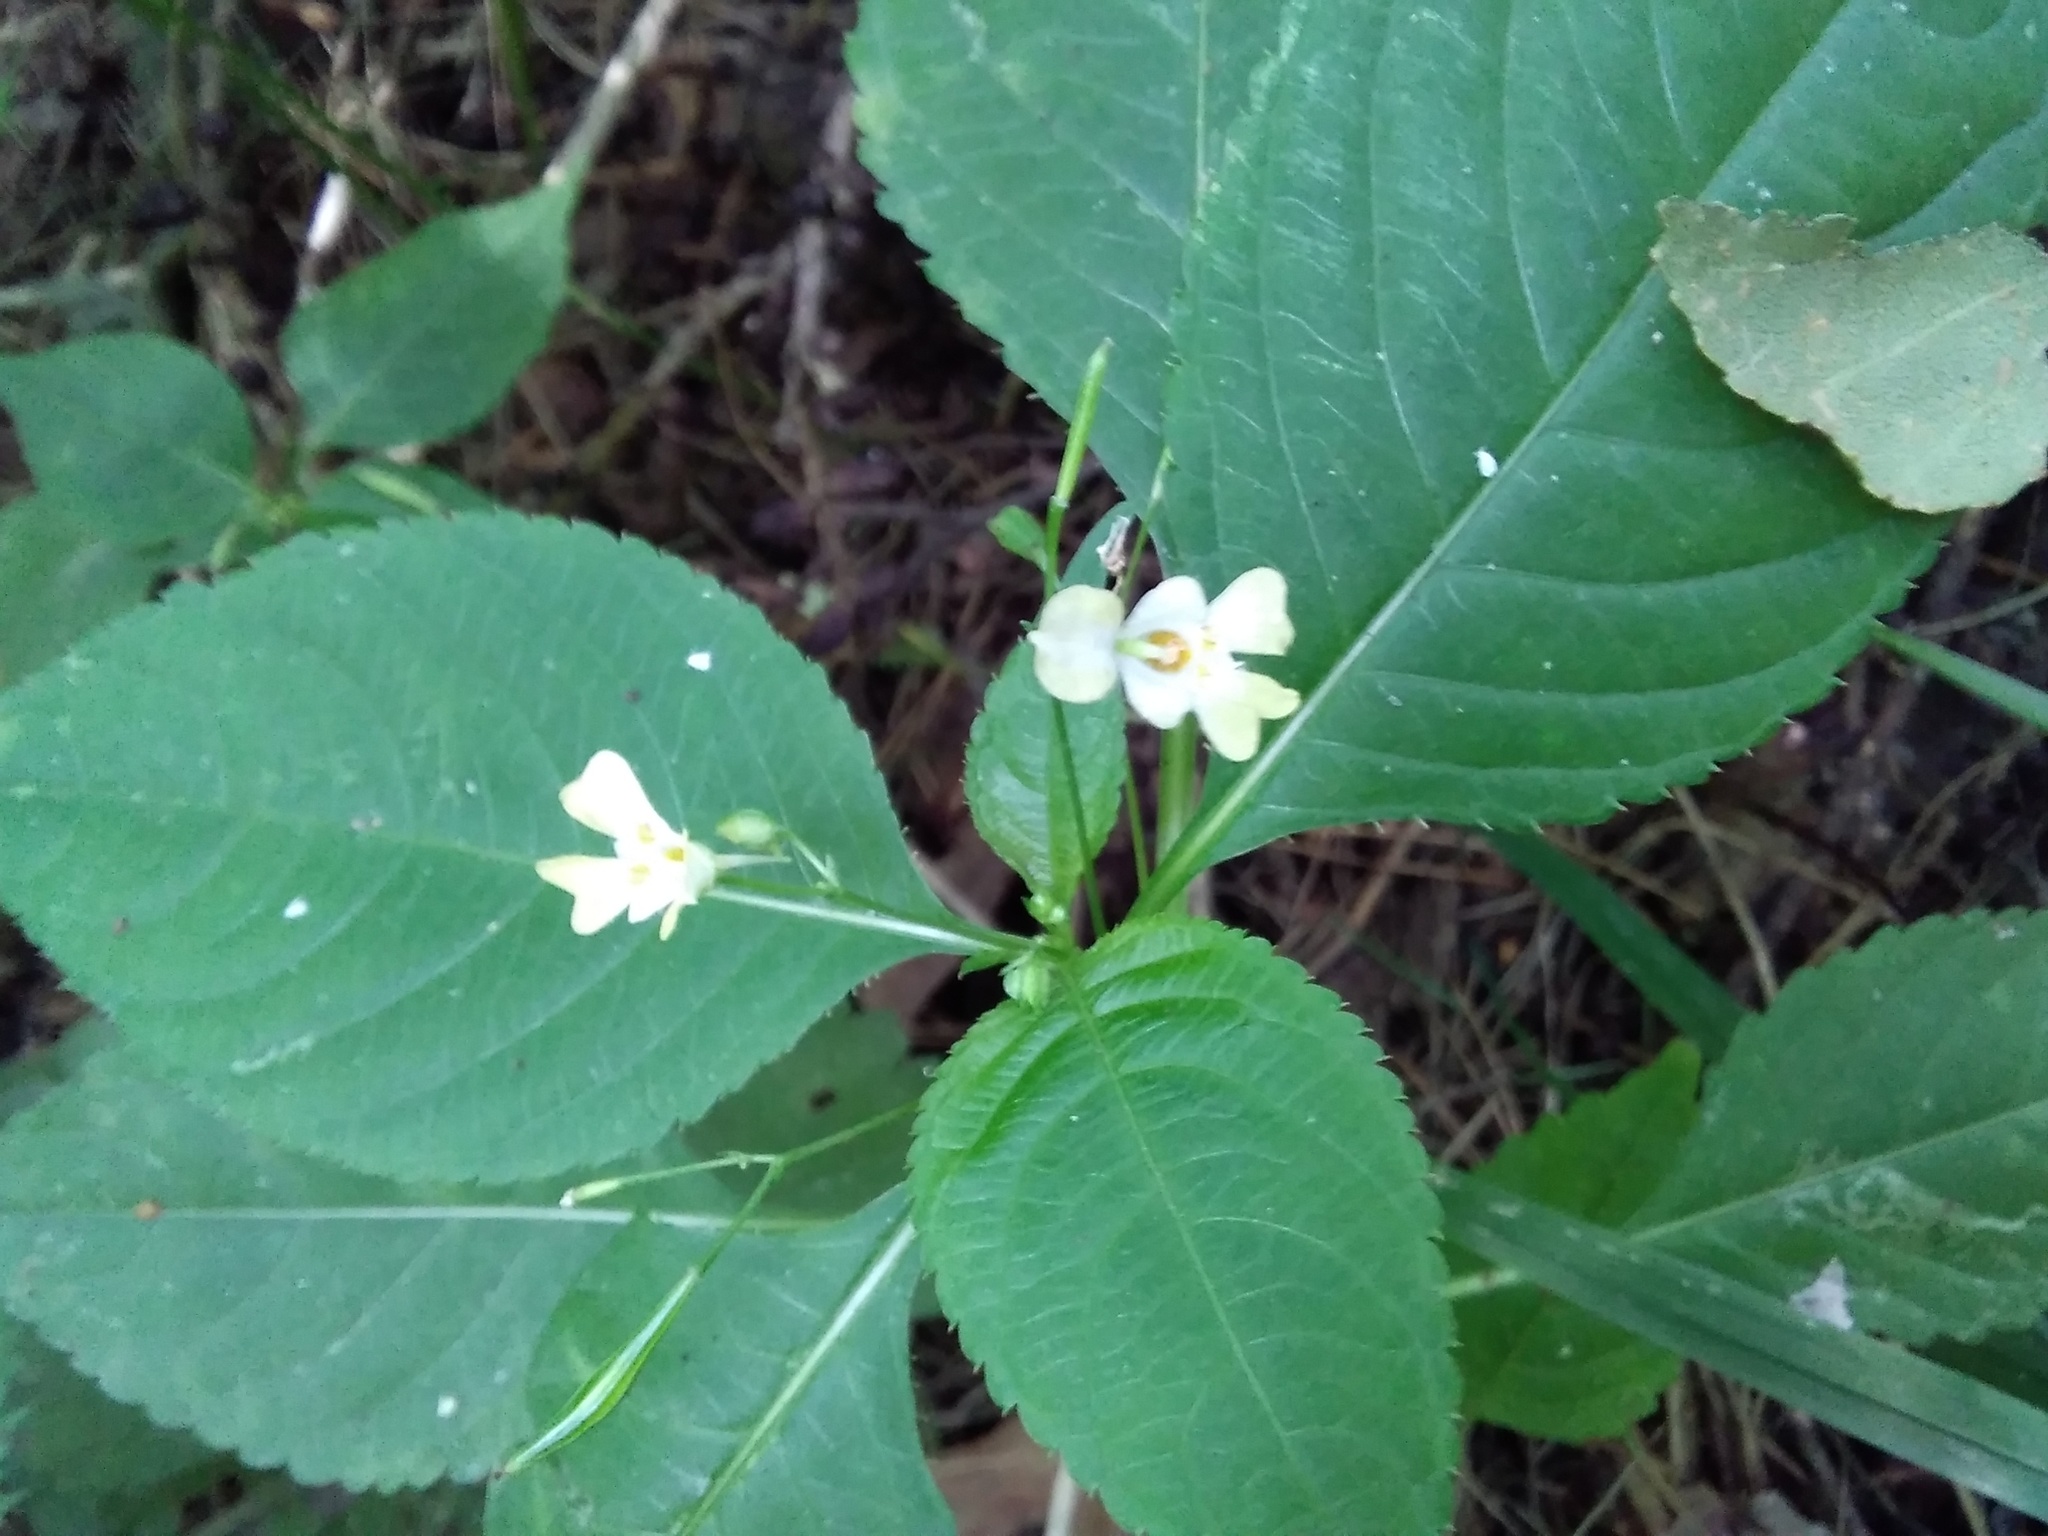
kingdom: Plantae
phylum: Tracheophyta
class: Magnoliopsida
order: Ericales
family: Balsaminaceae
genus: Impatiens
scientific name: Impatiens parviflora
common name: Small balsam
